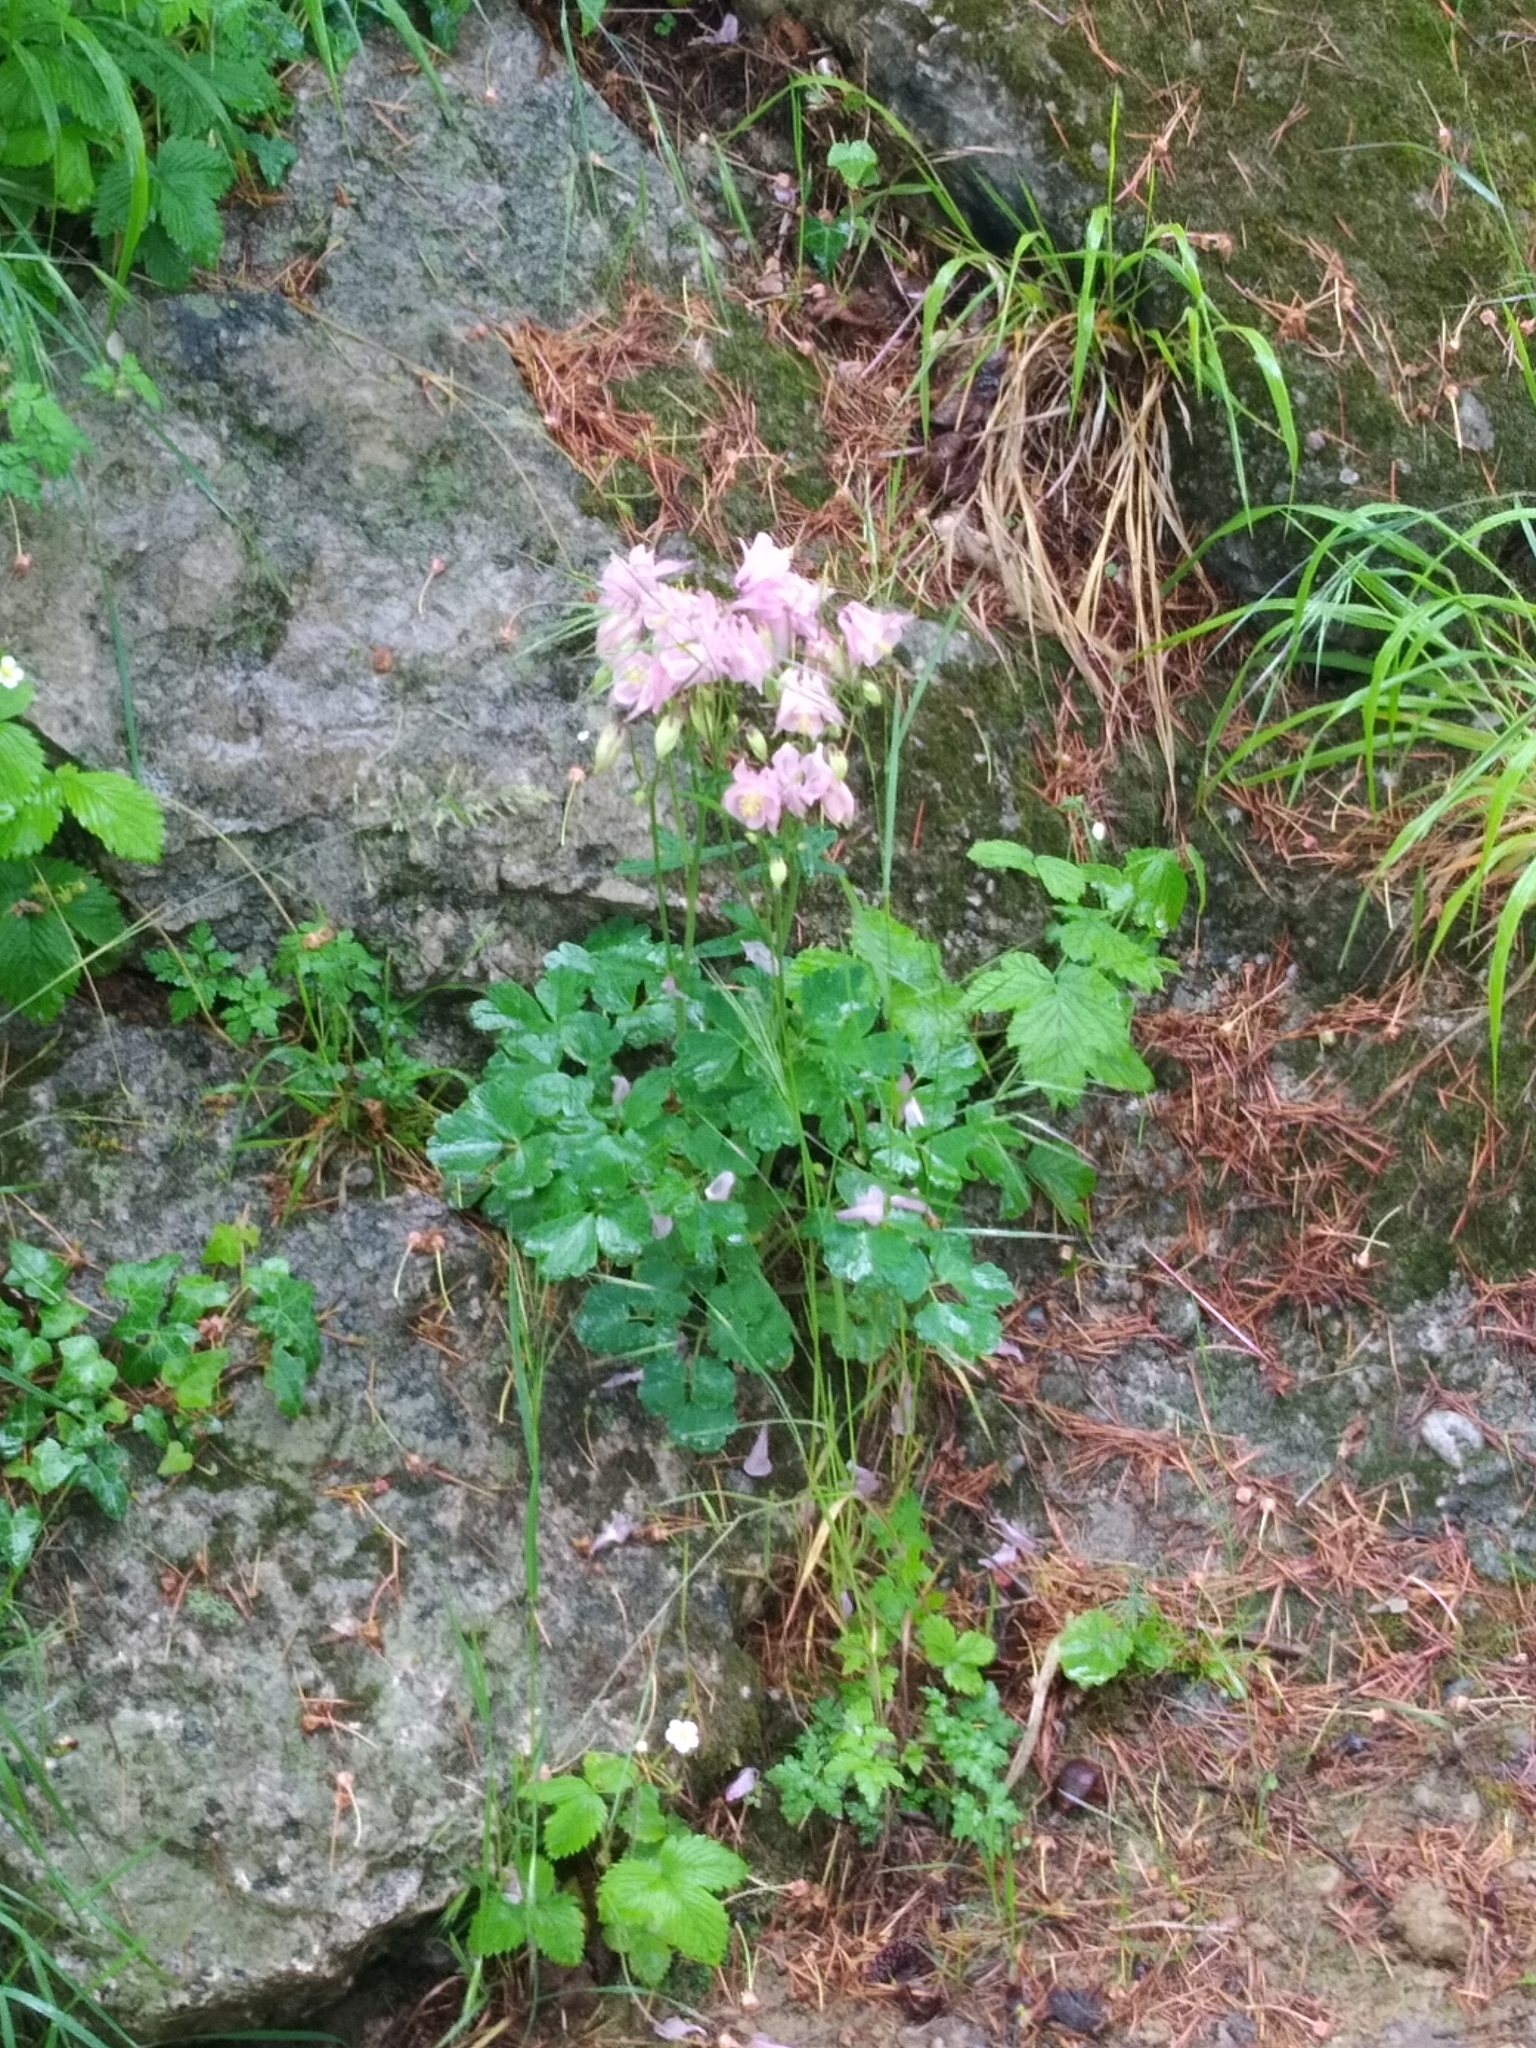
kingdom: Plantae
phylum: Tracheophyta
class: Magnoliopsida
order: Ranunculales
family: Ranunculaceae
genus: Aquilegia
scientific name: Aquilegia vulgaris
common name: Columbine
